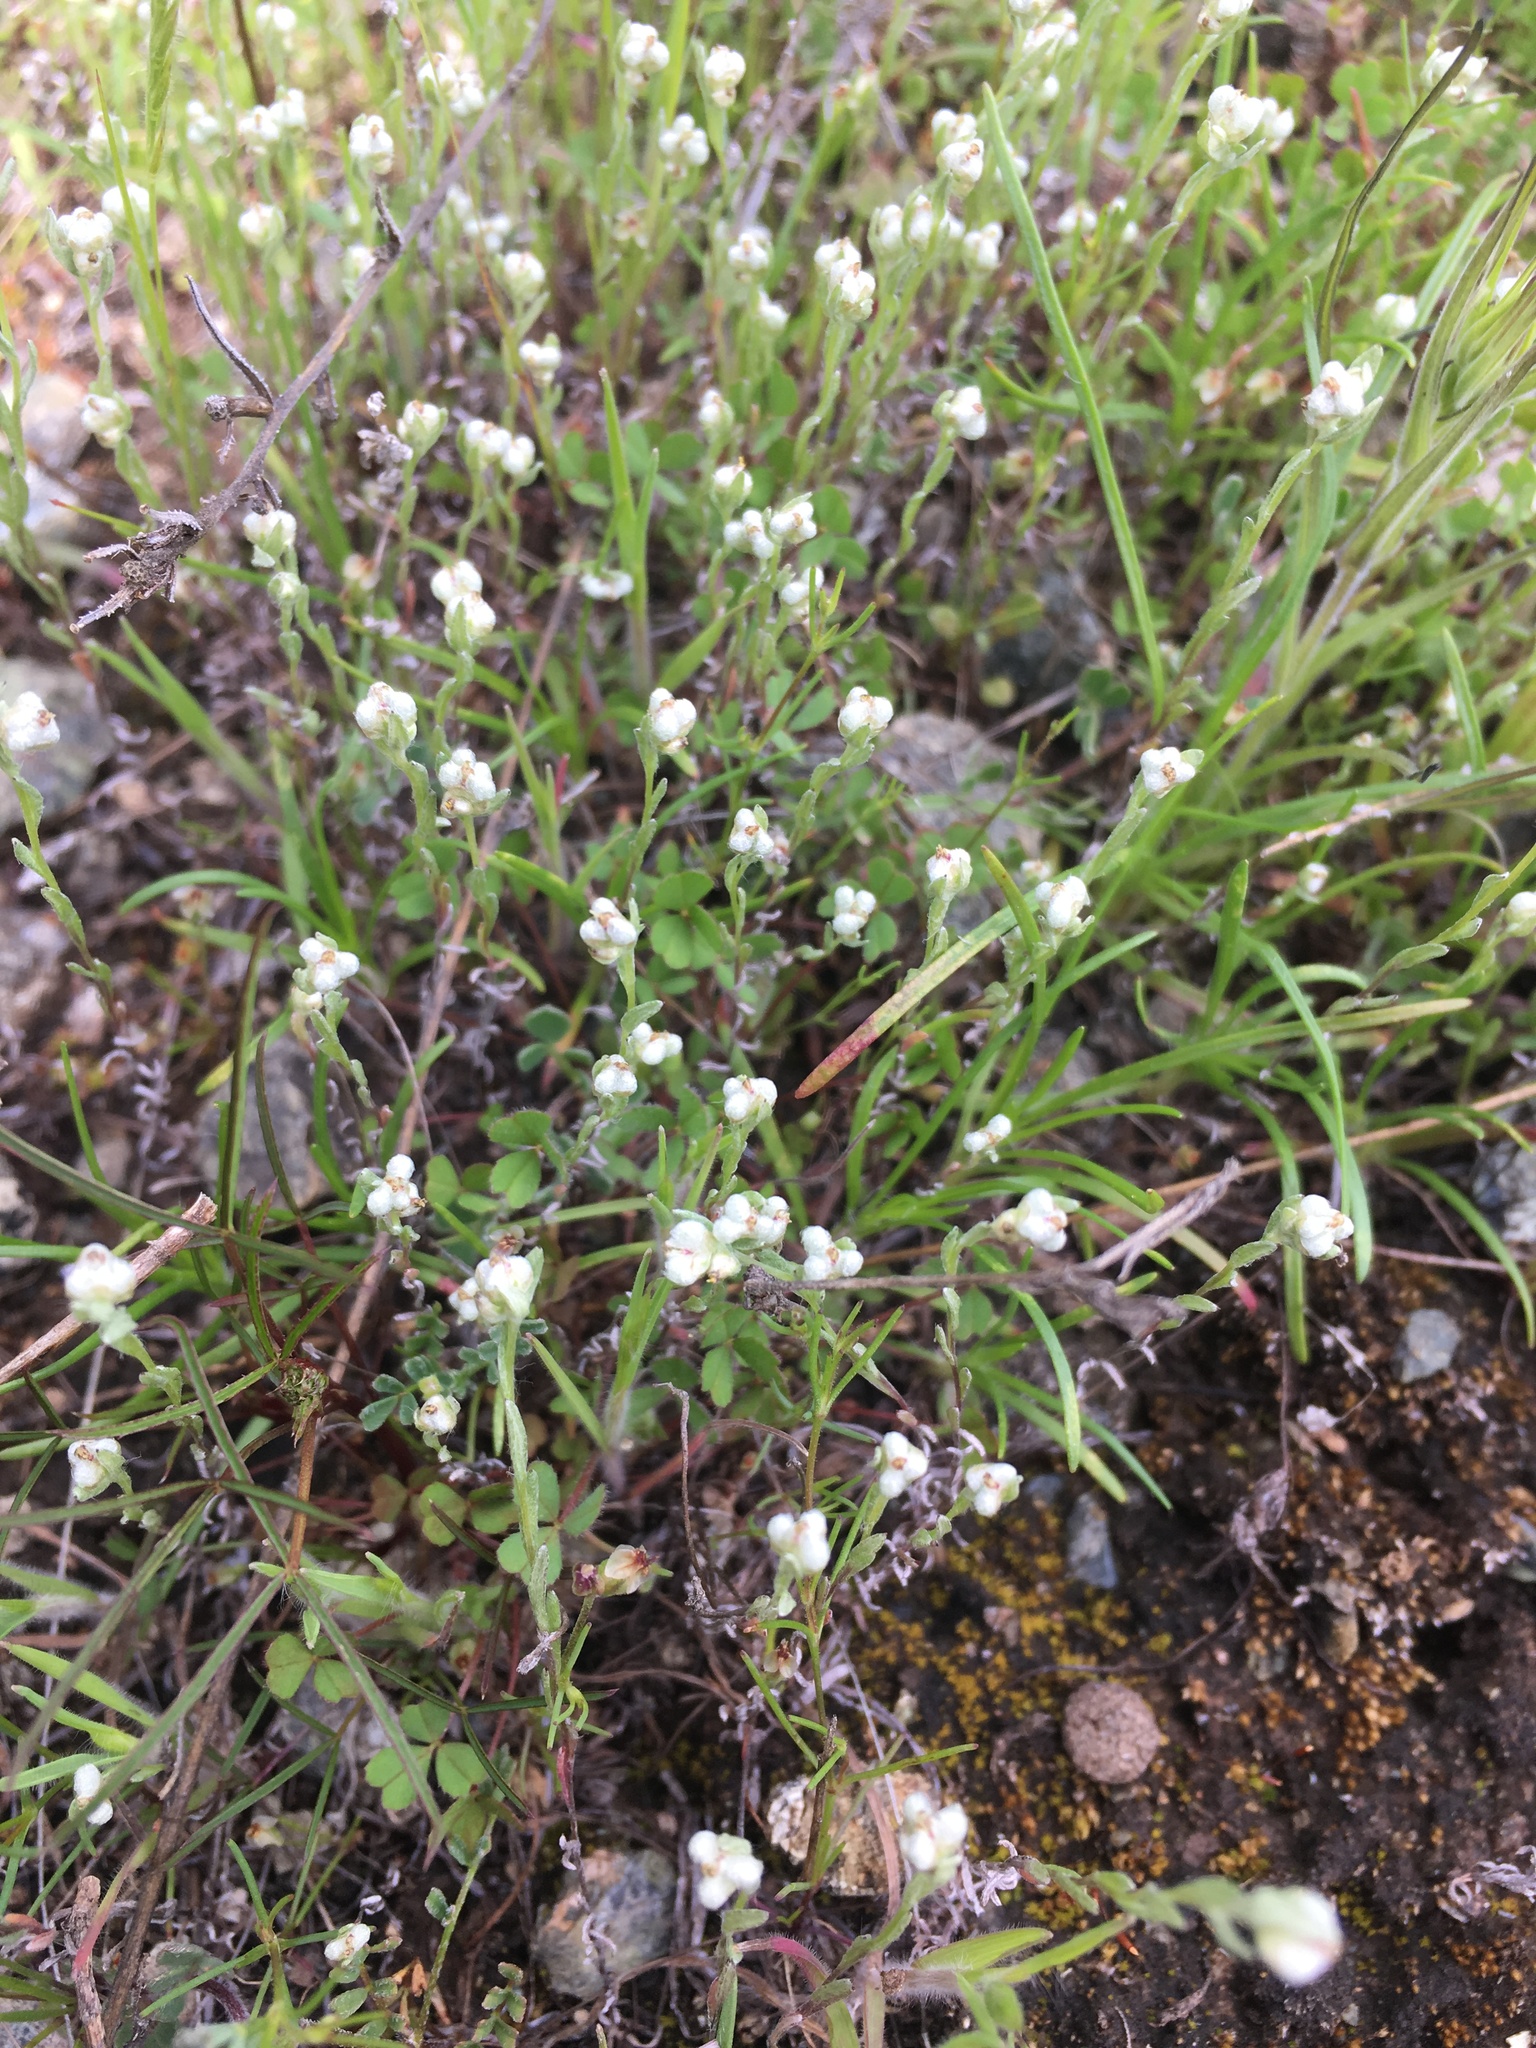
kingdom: Plantae
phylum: Tracheophyta
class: Magnoliopsida
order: Asterales
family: Asteraceae
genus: Bombycilaena
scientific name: Bombycilaena californica
